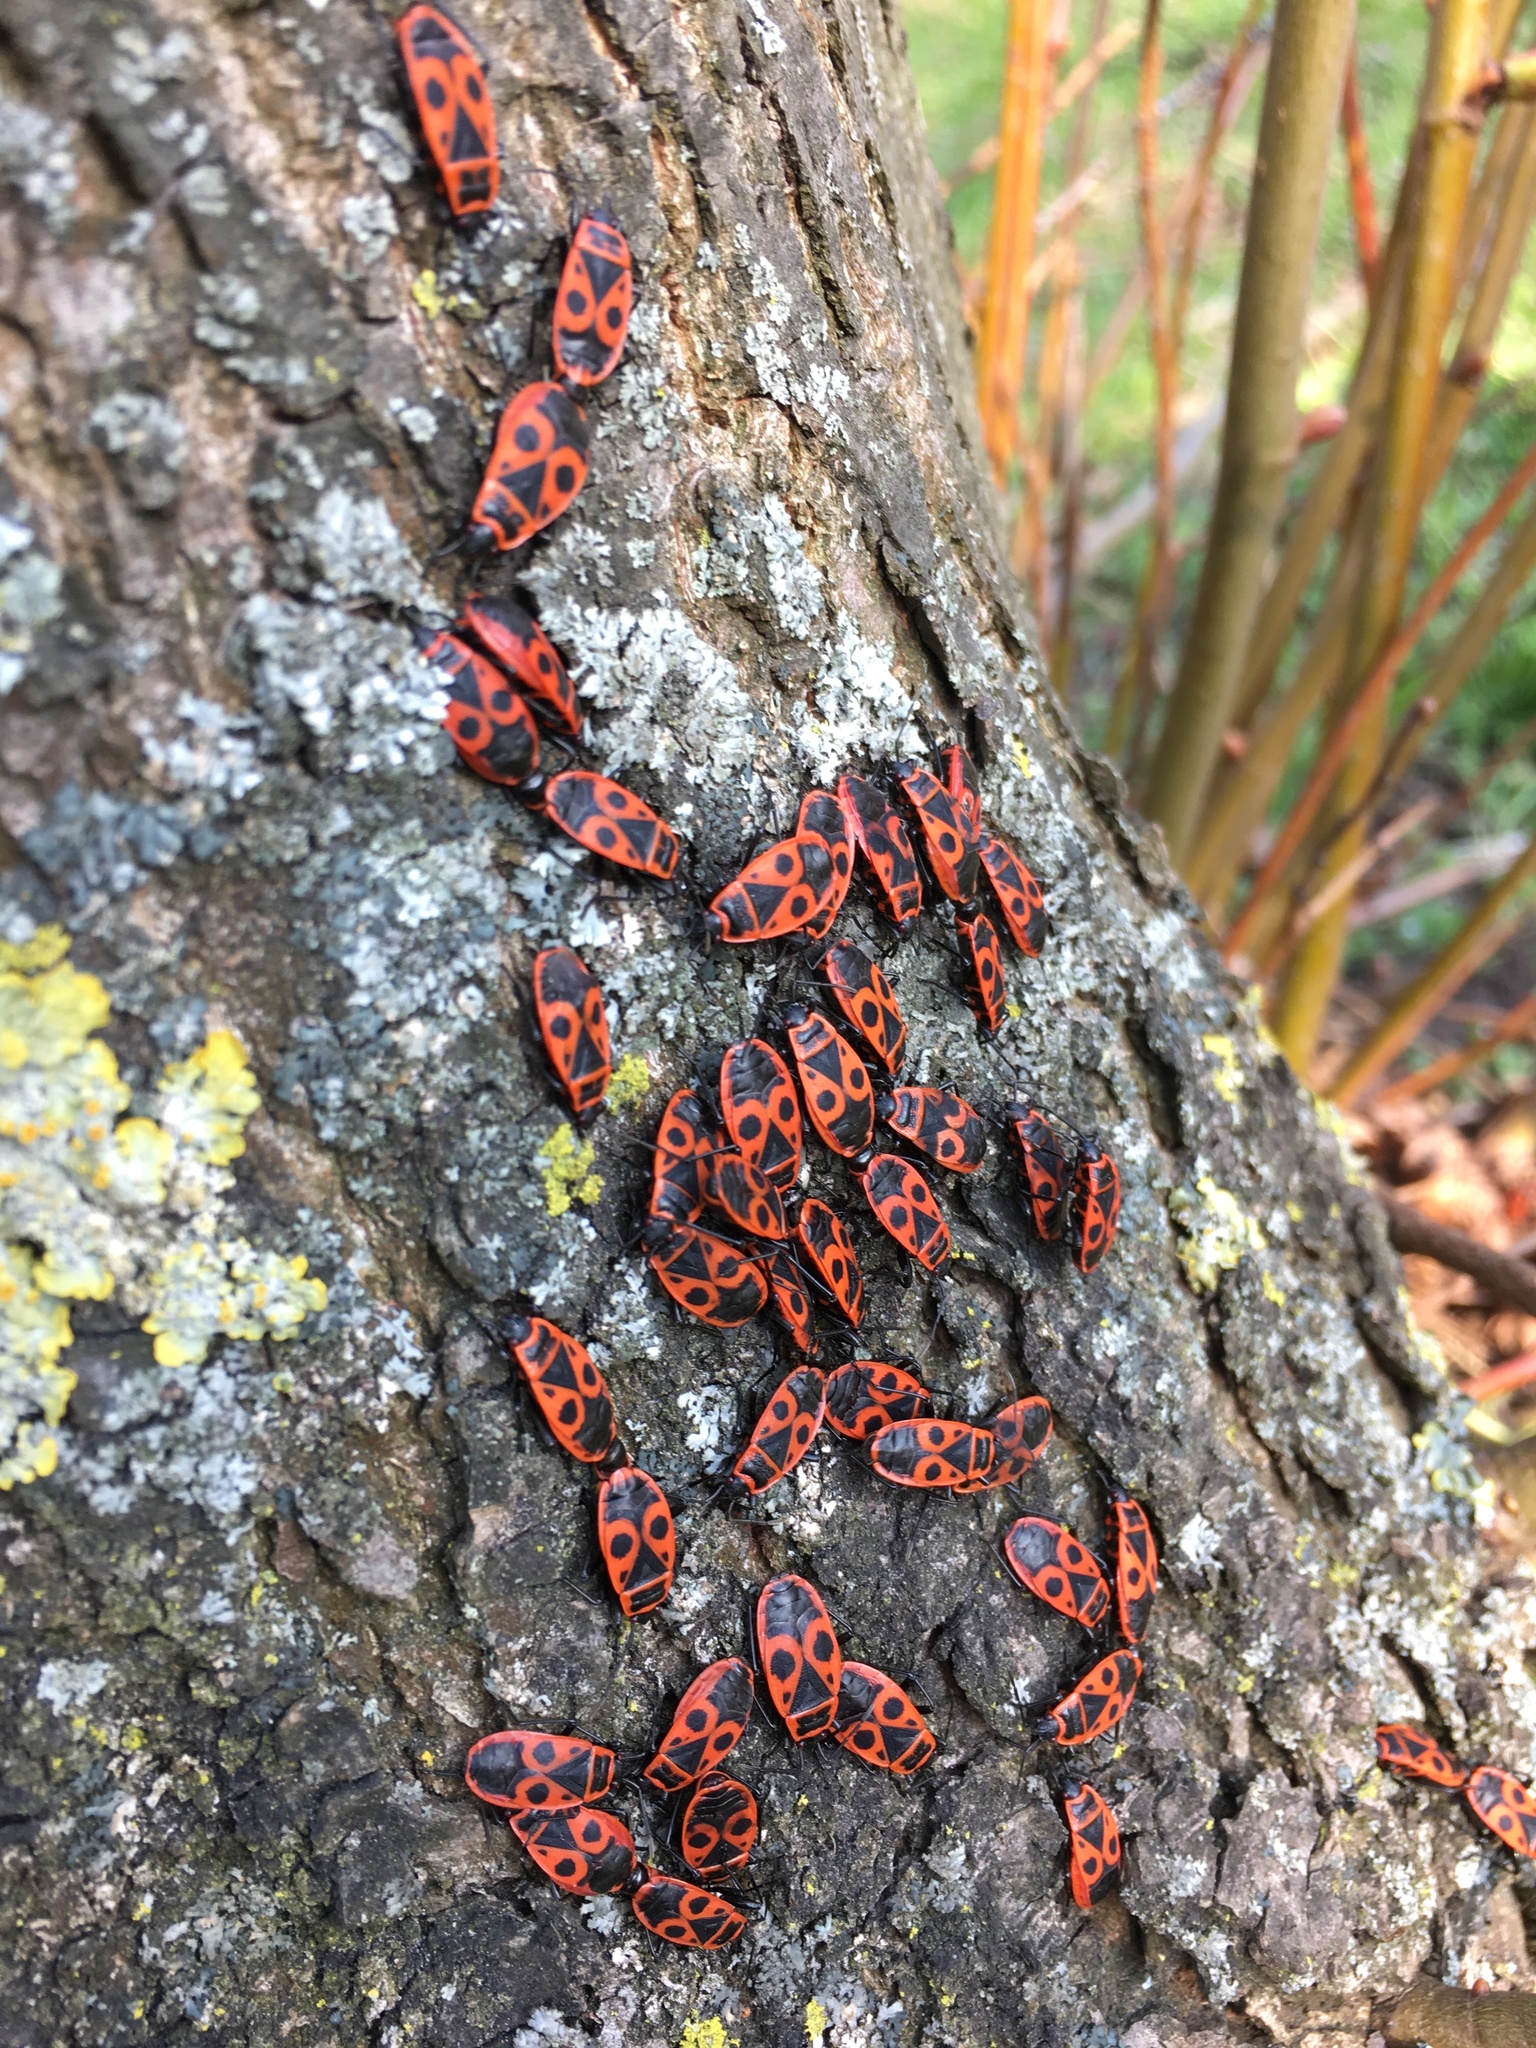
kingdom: Animalia
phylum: Arthropoda
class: Insecta
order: Hemiptera
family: Pyrrhocoridae
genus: Pyrrhocoris
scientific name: Pyrrhocoris apterus
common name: Firebug
